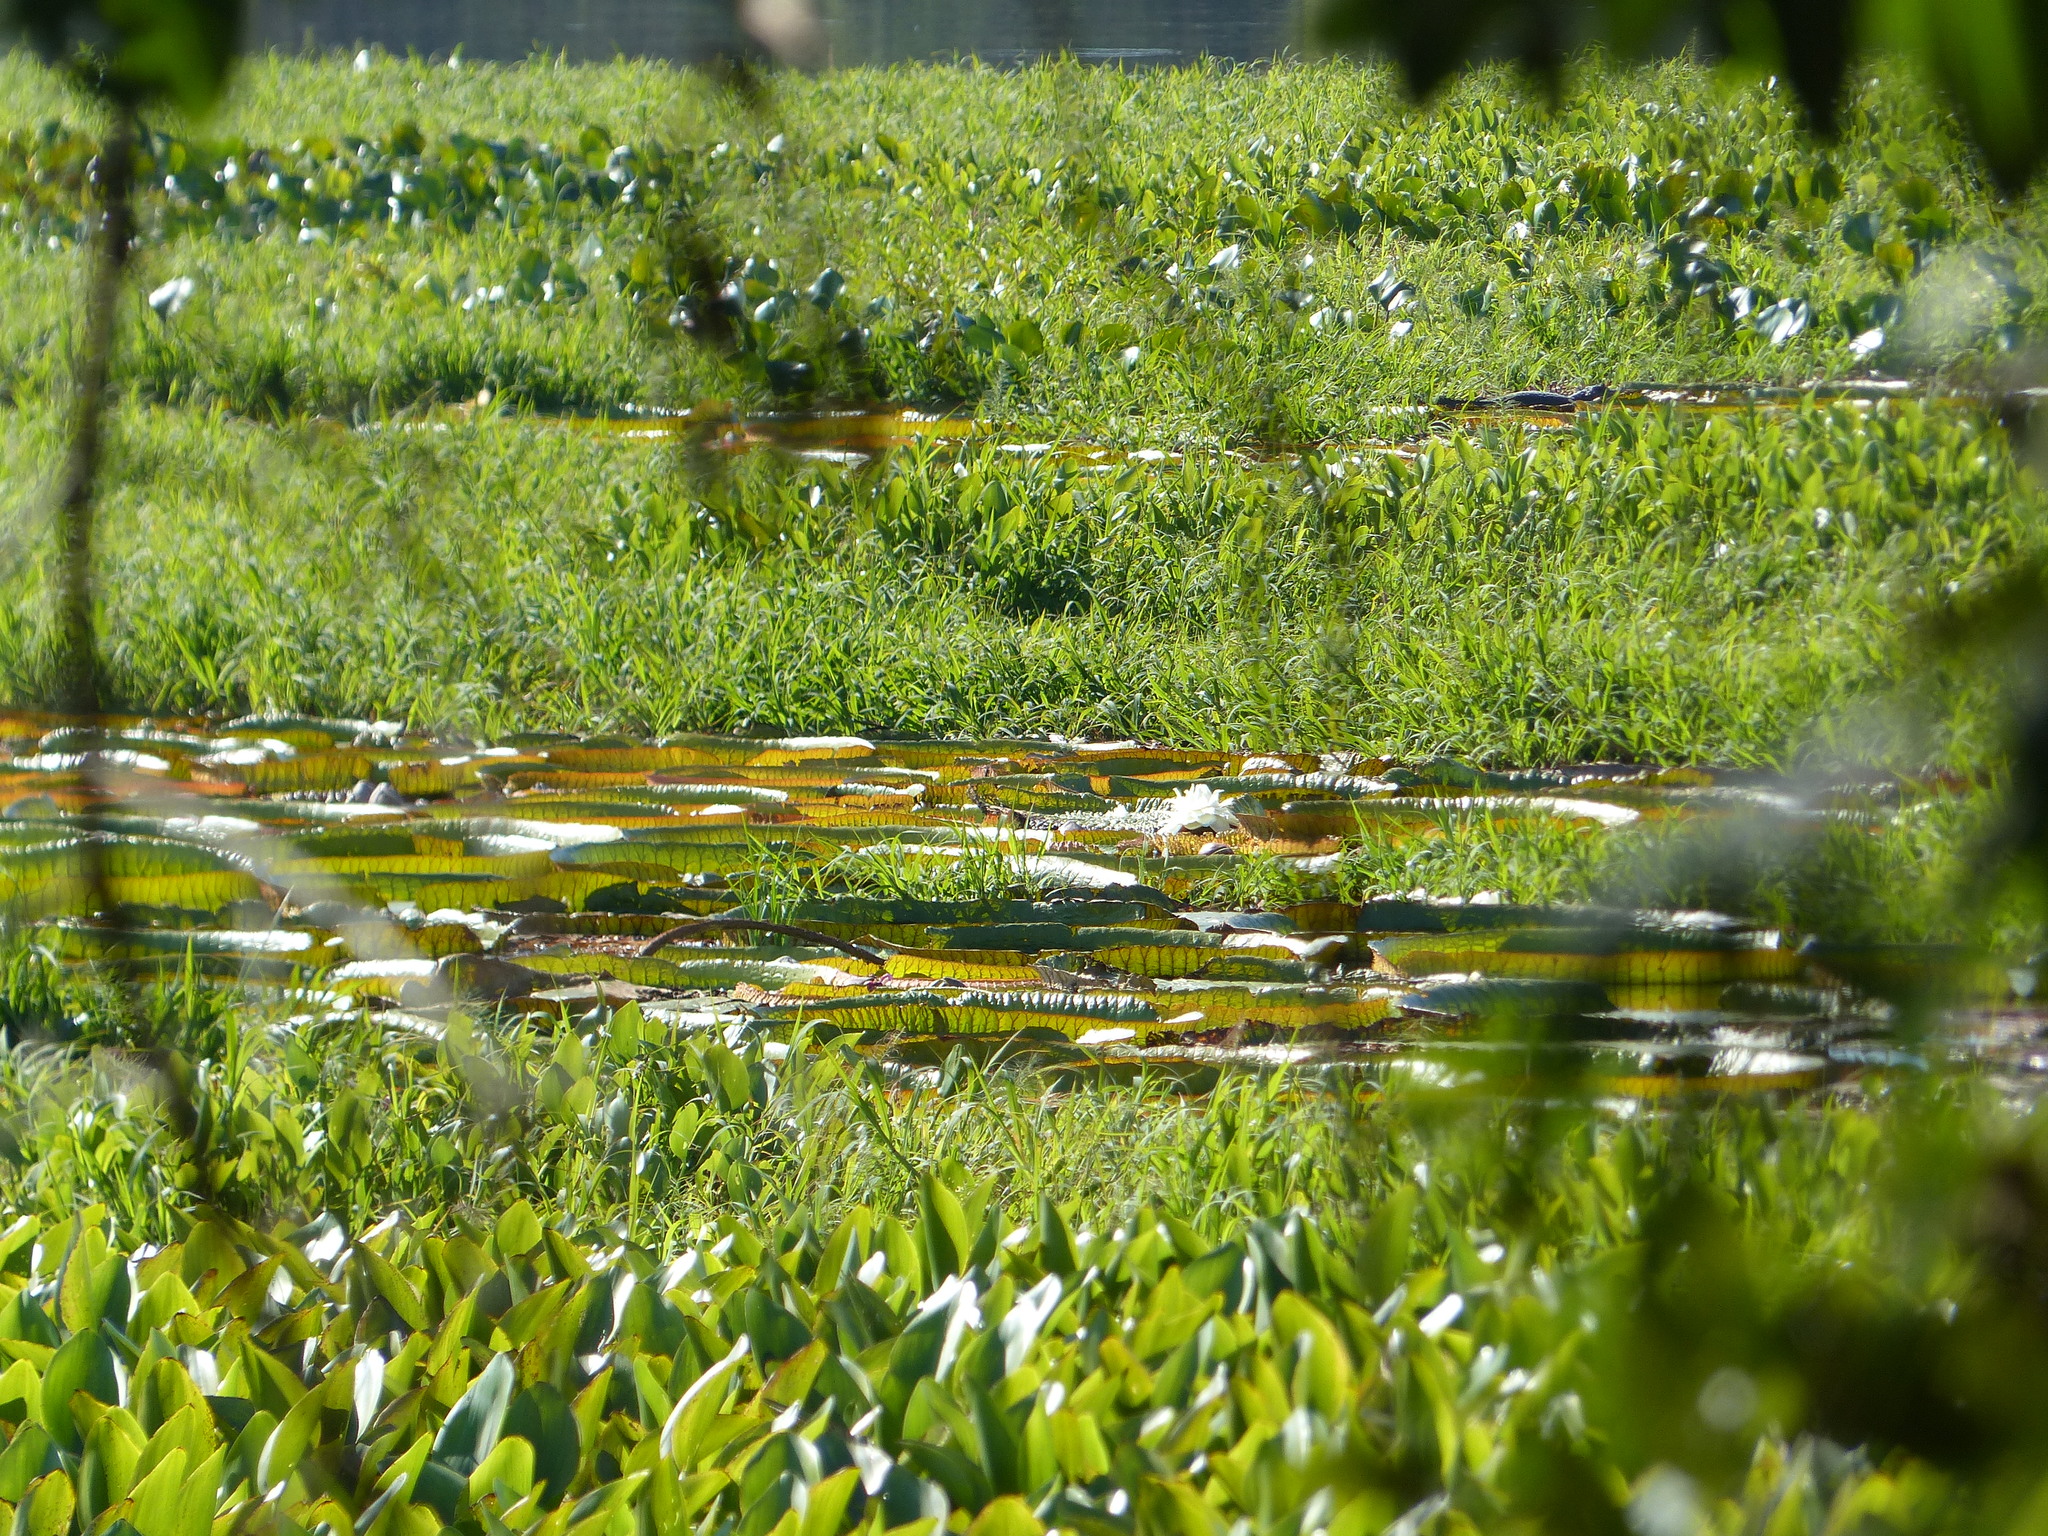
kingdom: Plantae
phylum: Tracheophyta
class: Magnoliopsida
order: Nymphaeales
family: Nymphaeaceae
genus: Victoria
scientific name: Victoria cruziana
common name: Santa cruz water-lily
